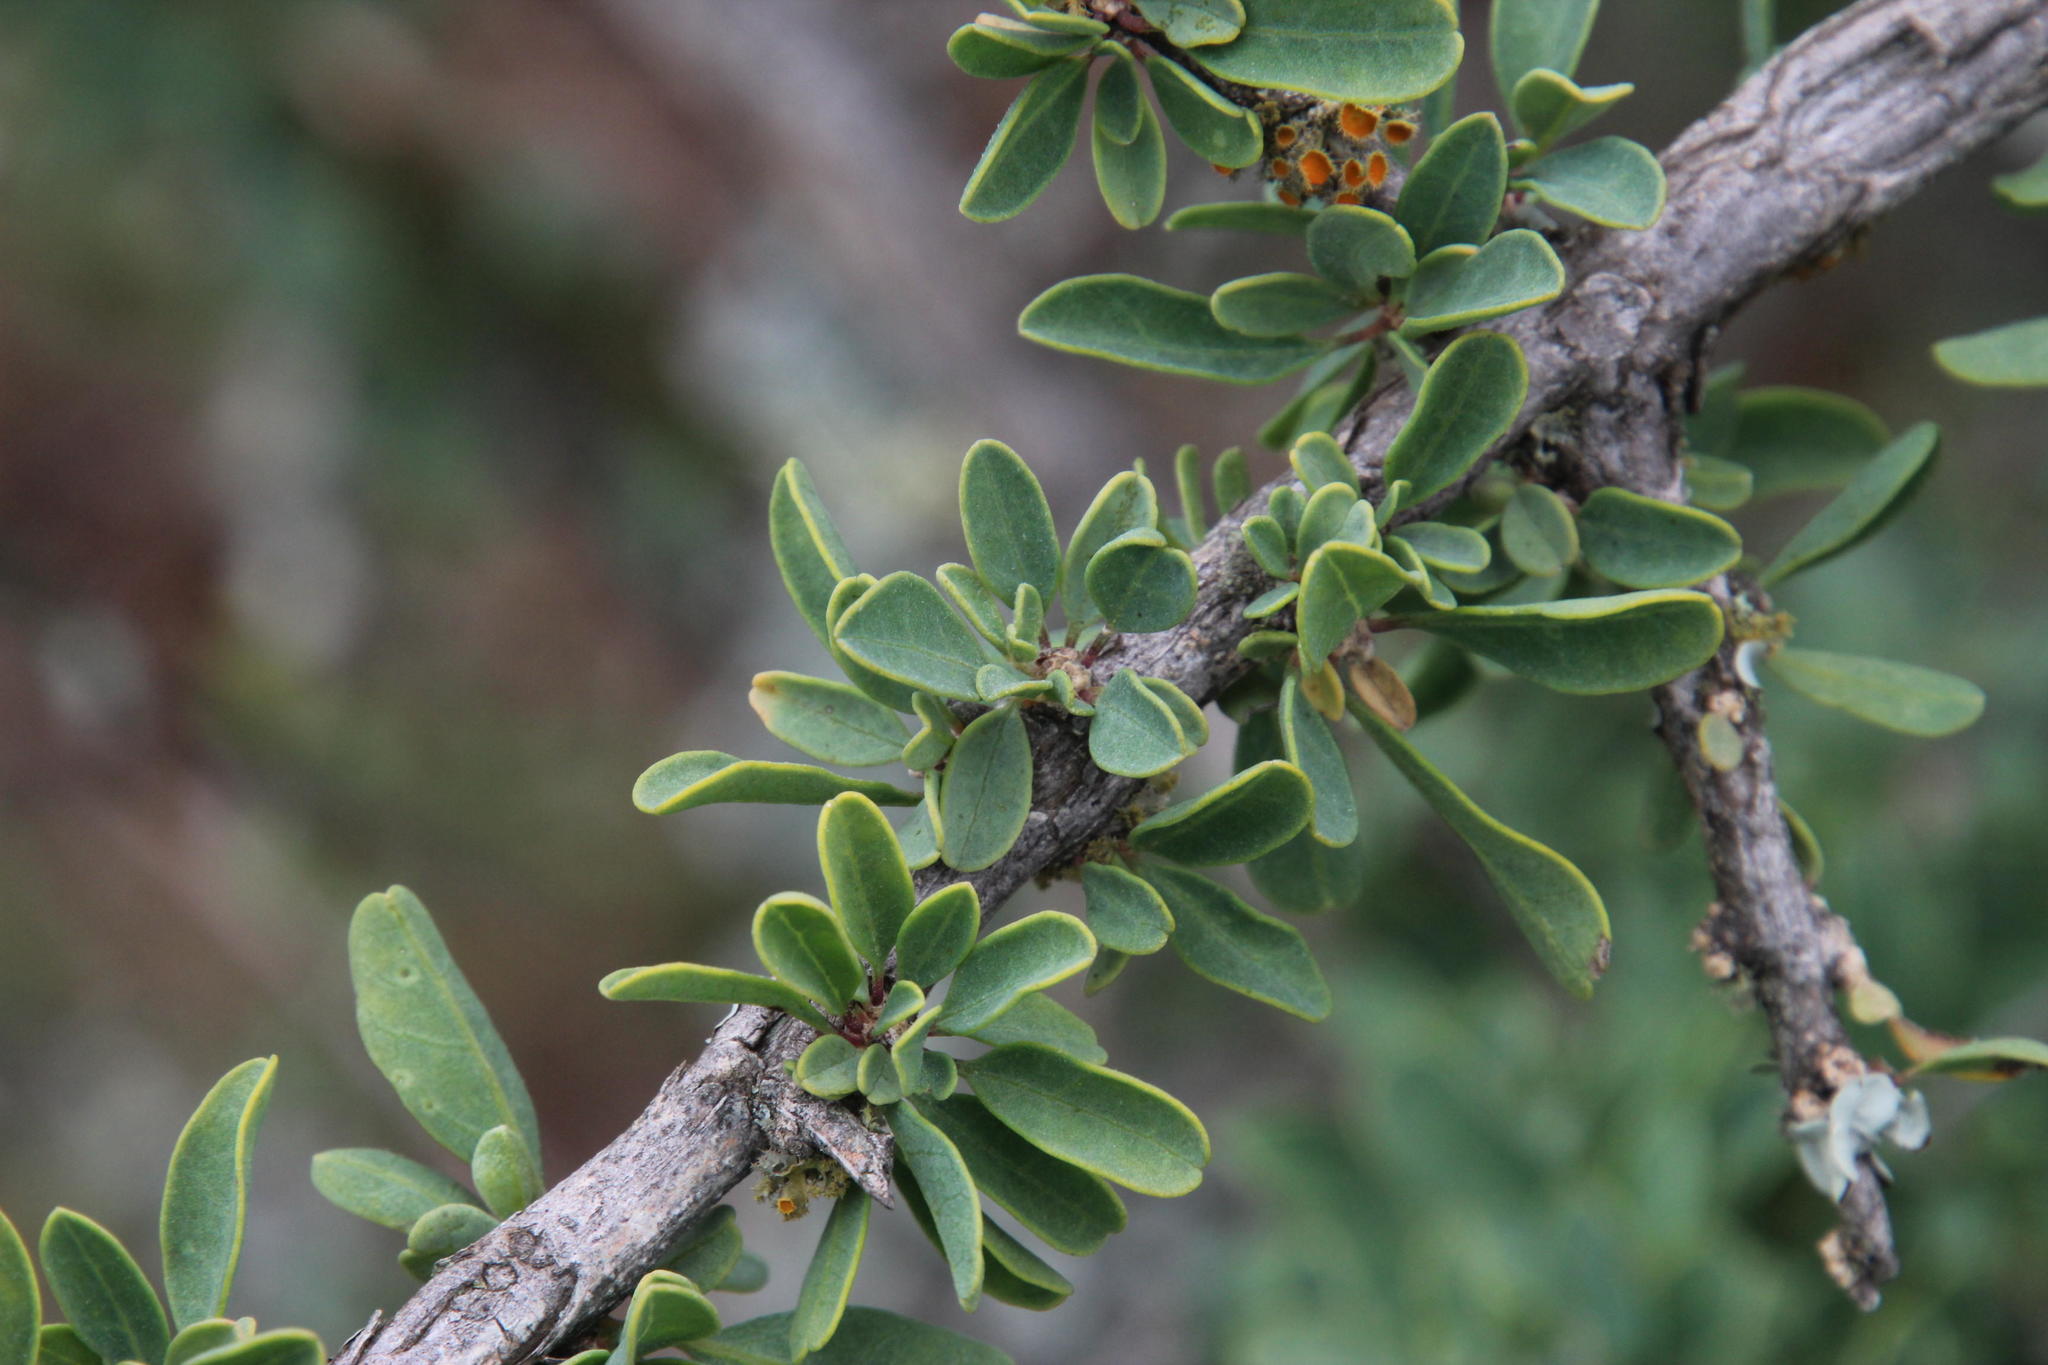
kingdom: Plantae
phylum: Tracheophyta
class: Magnoliopsida
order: Lamiales
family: Bignoniaceae
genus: Rhigozum
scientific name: Rhigozum obovatum
